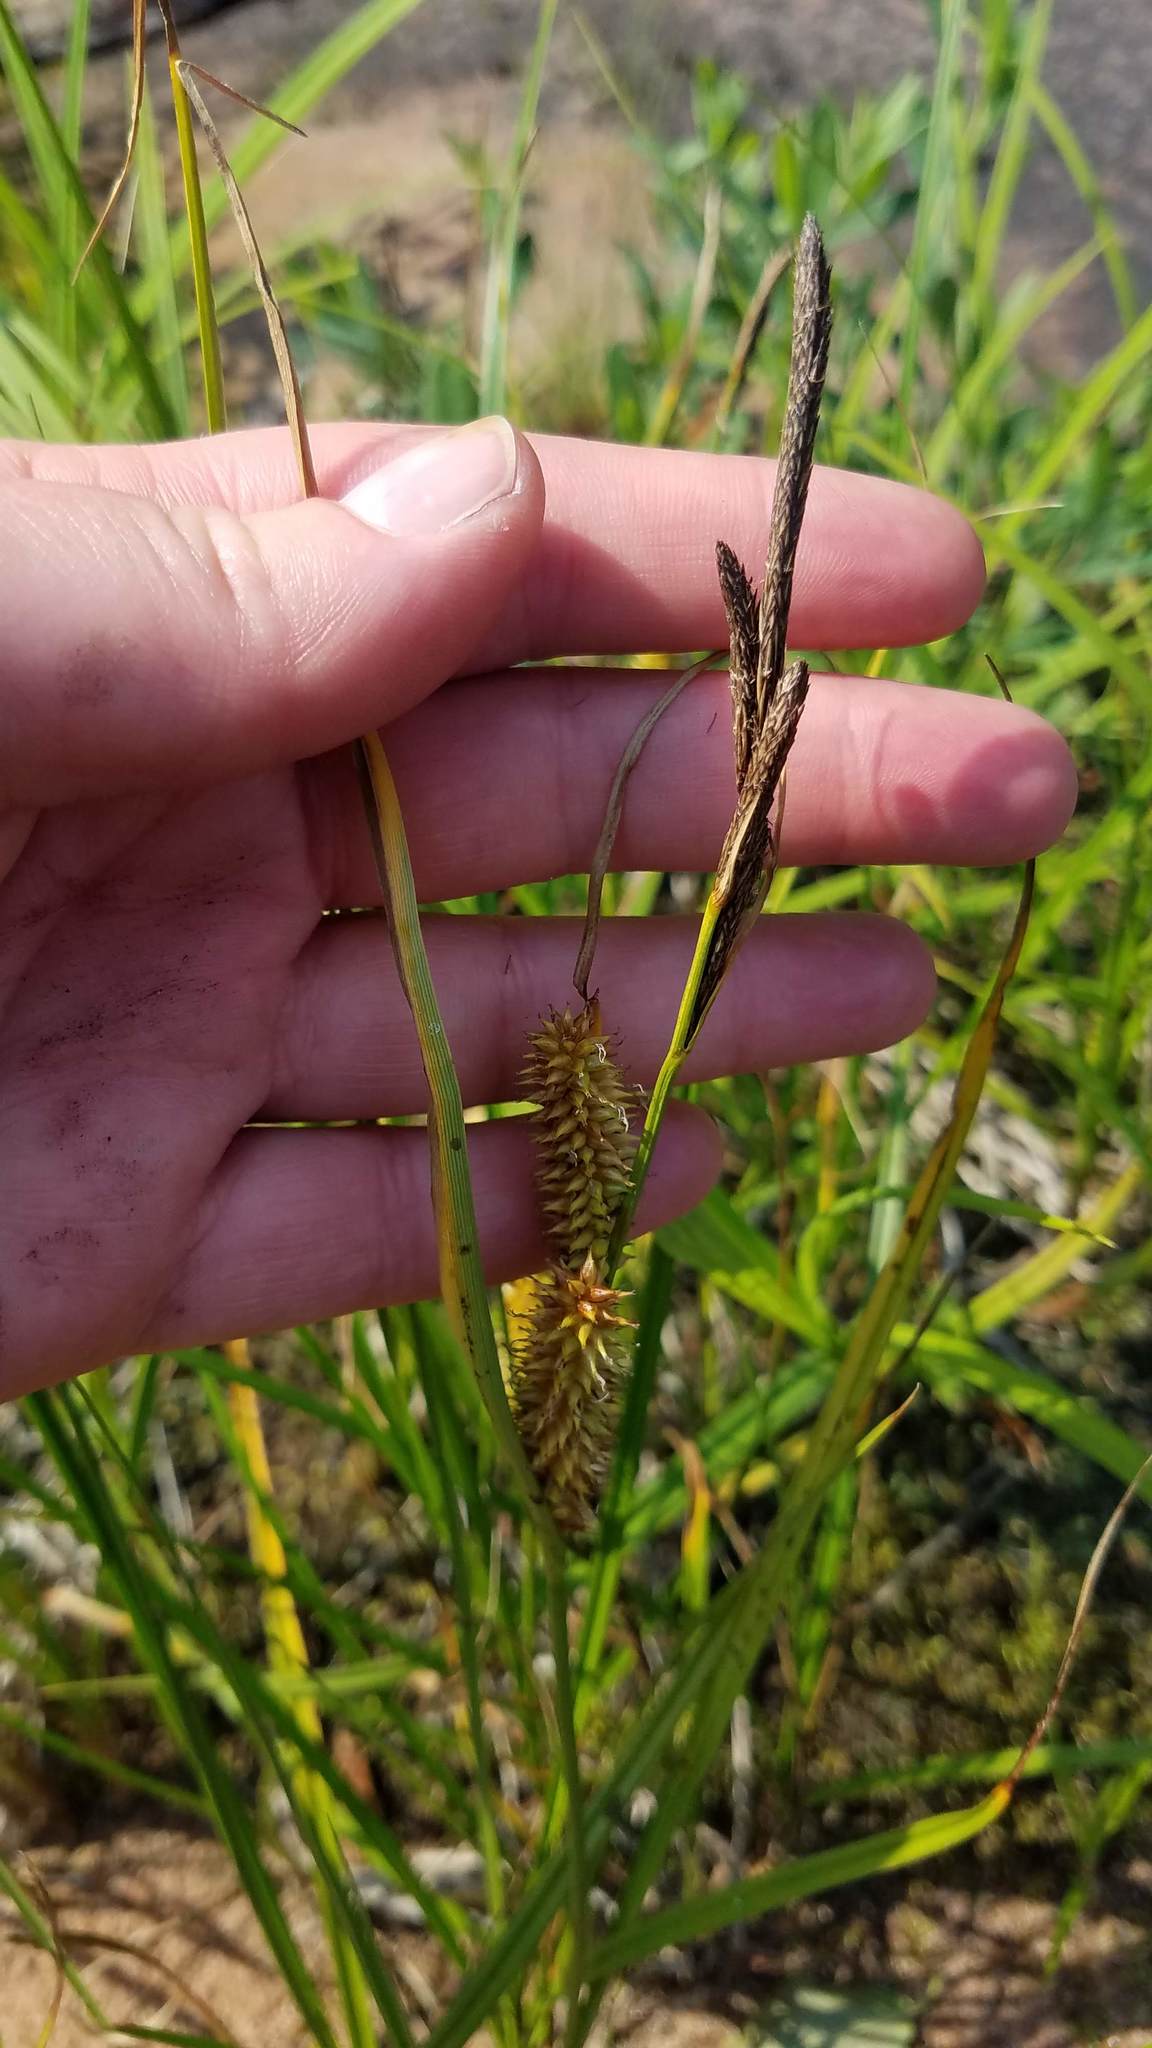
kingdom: Plantae
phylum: Tracheophyta
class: Liliopsida
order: Poales
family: Cyperaceae
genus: Carex
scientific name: Carex utriculata
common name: Beaked sedge
